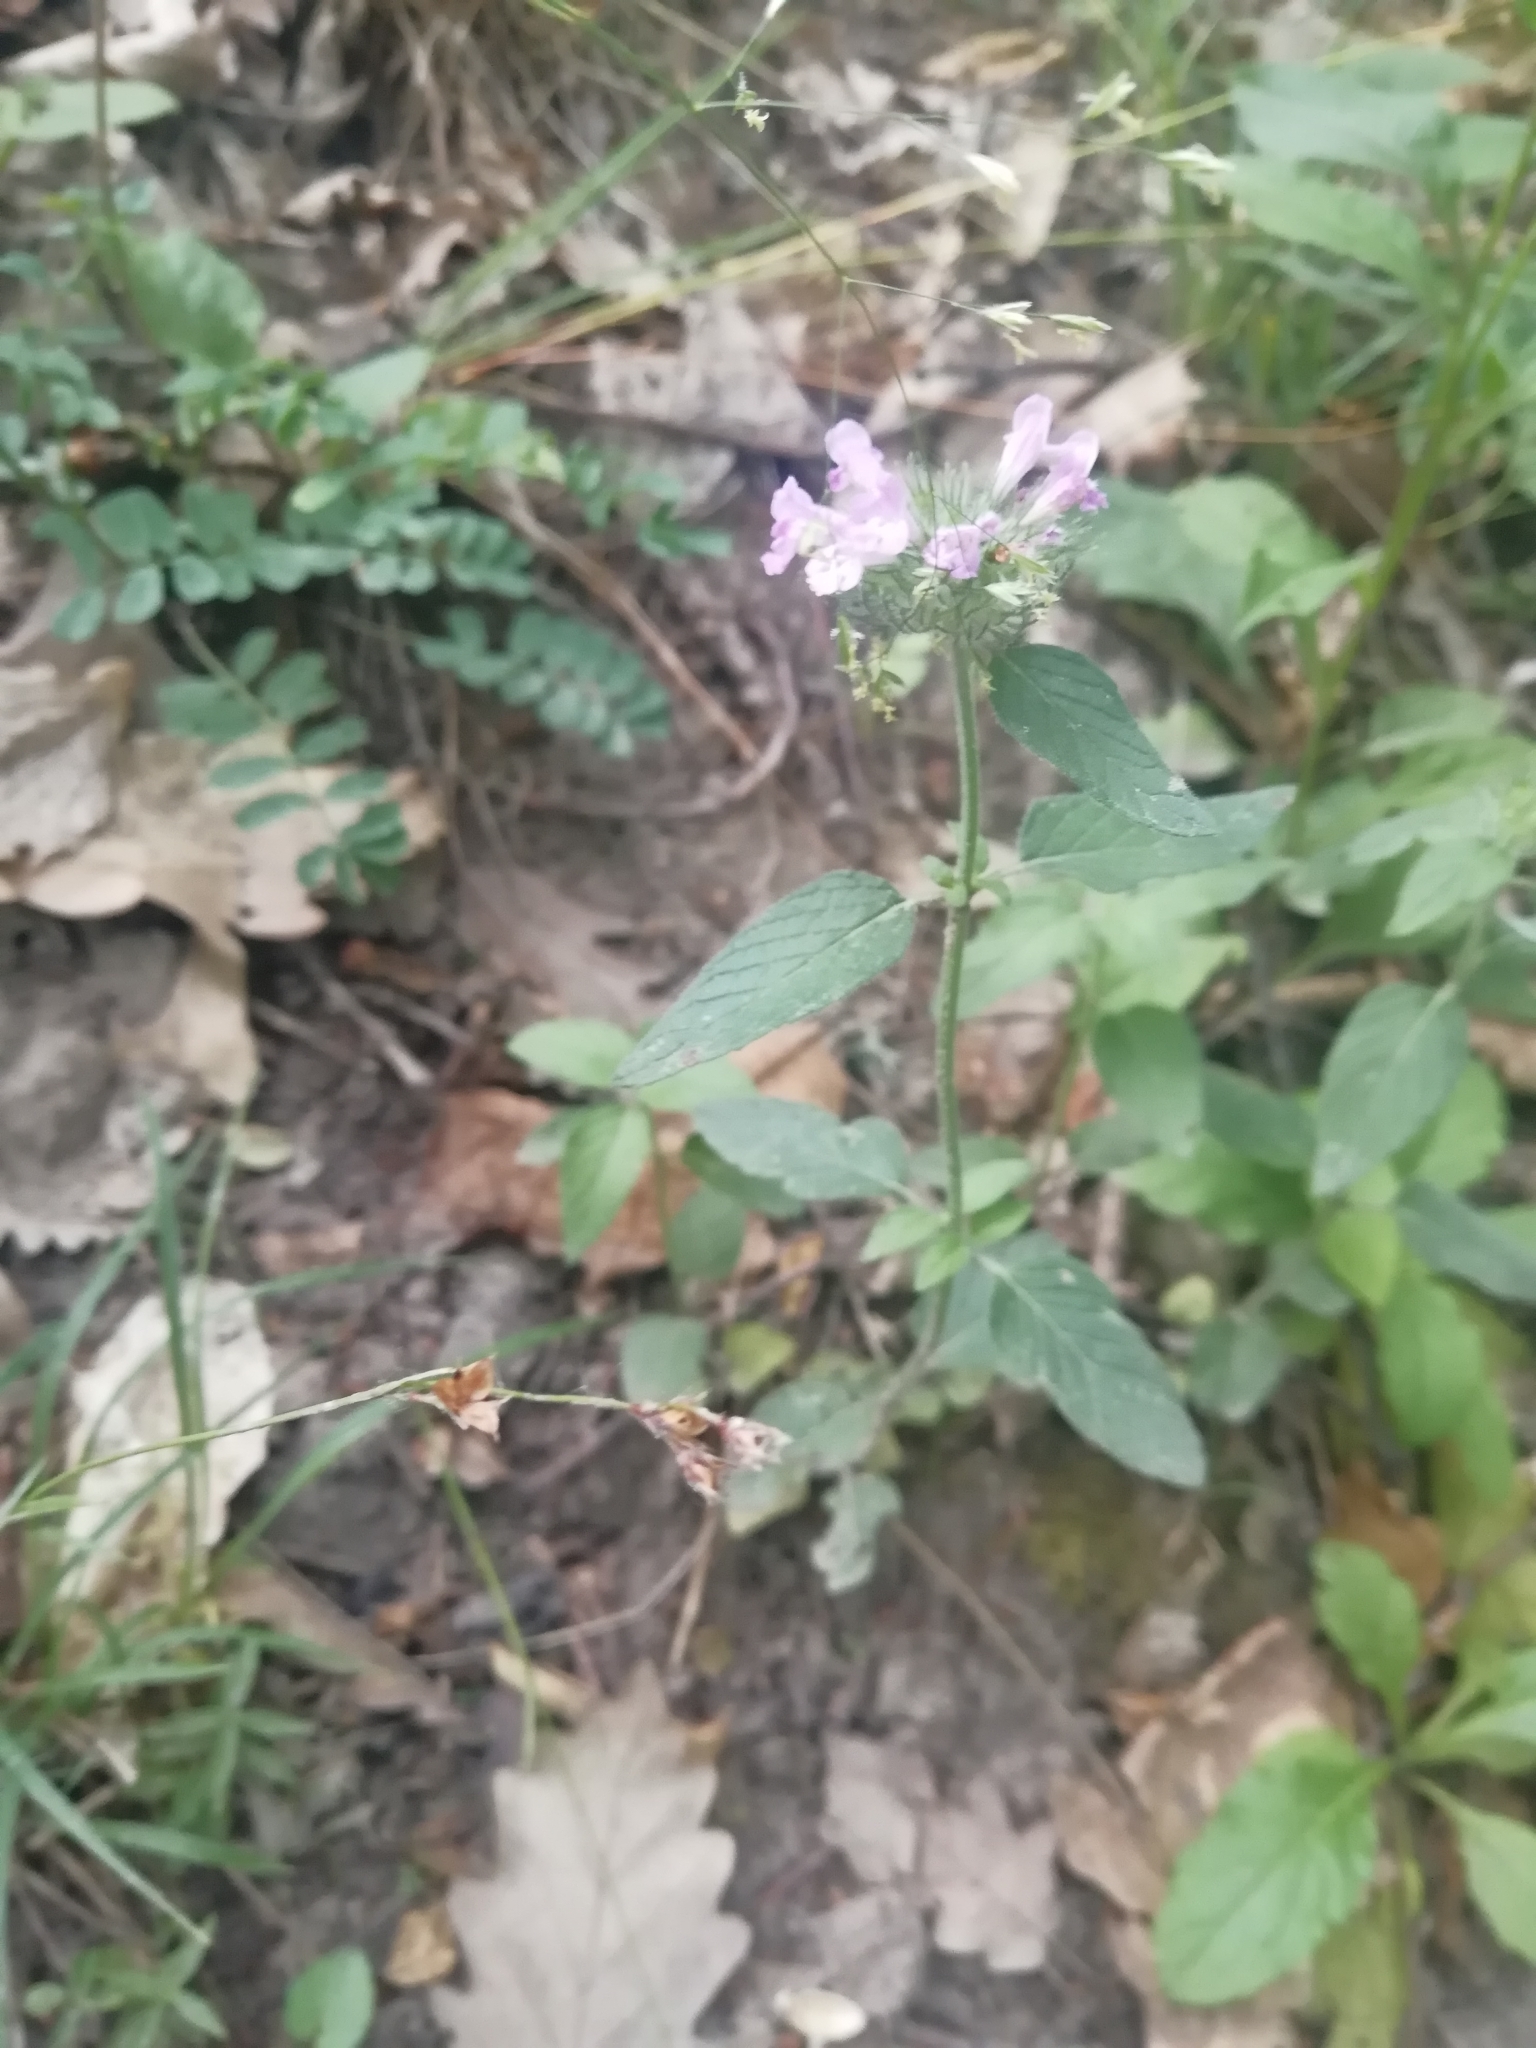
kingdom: Plantae
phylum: Tracheophyta
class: Magnoliopsida
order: Lamiales
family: Lamiaceae
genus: Clinopodium
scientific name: Clinopodium caucasicum
